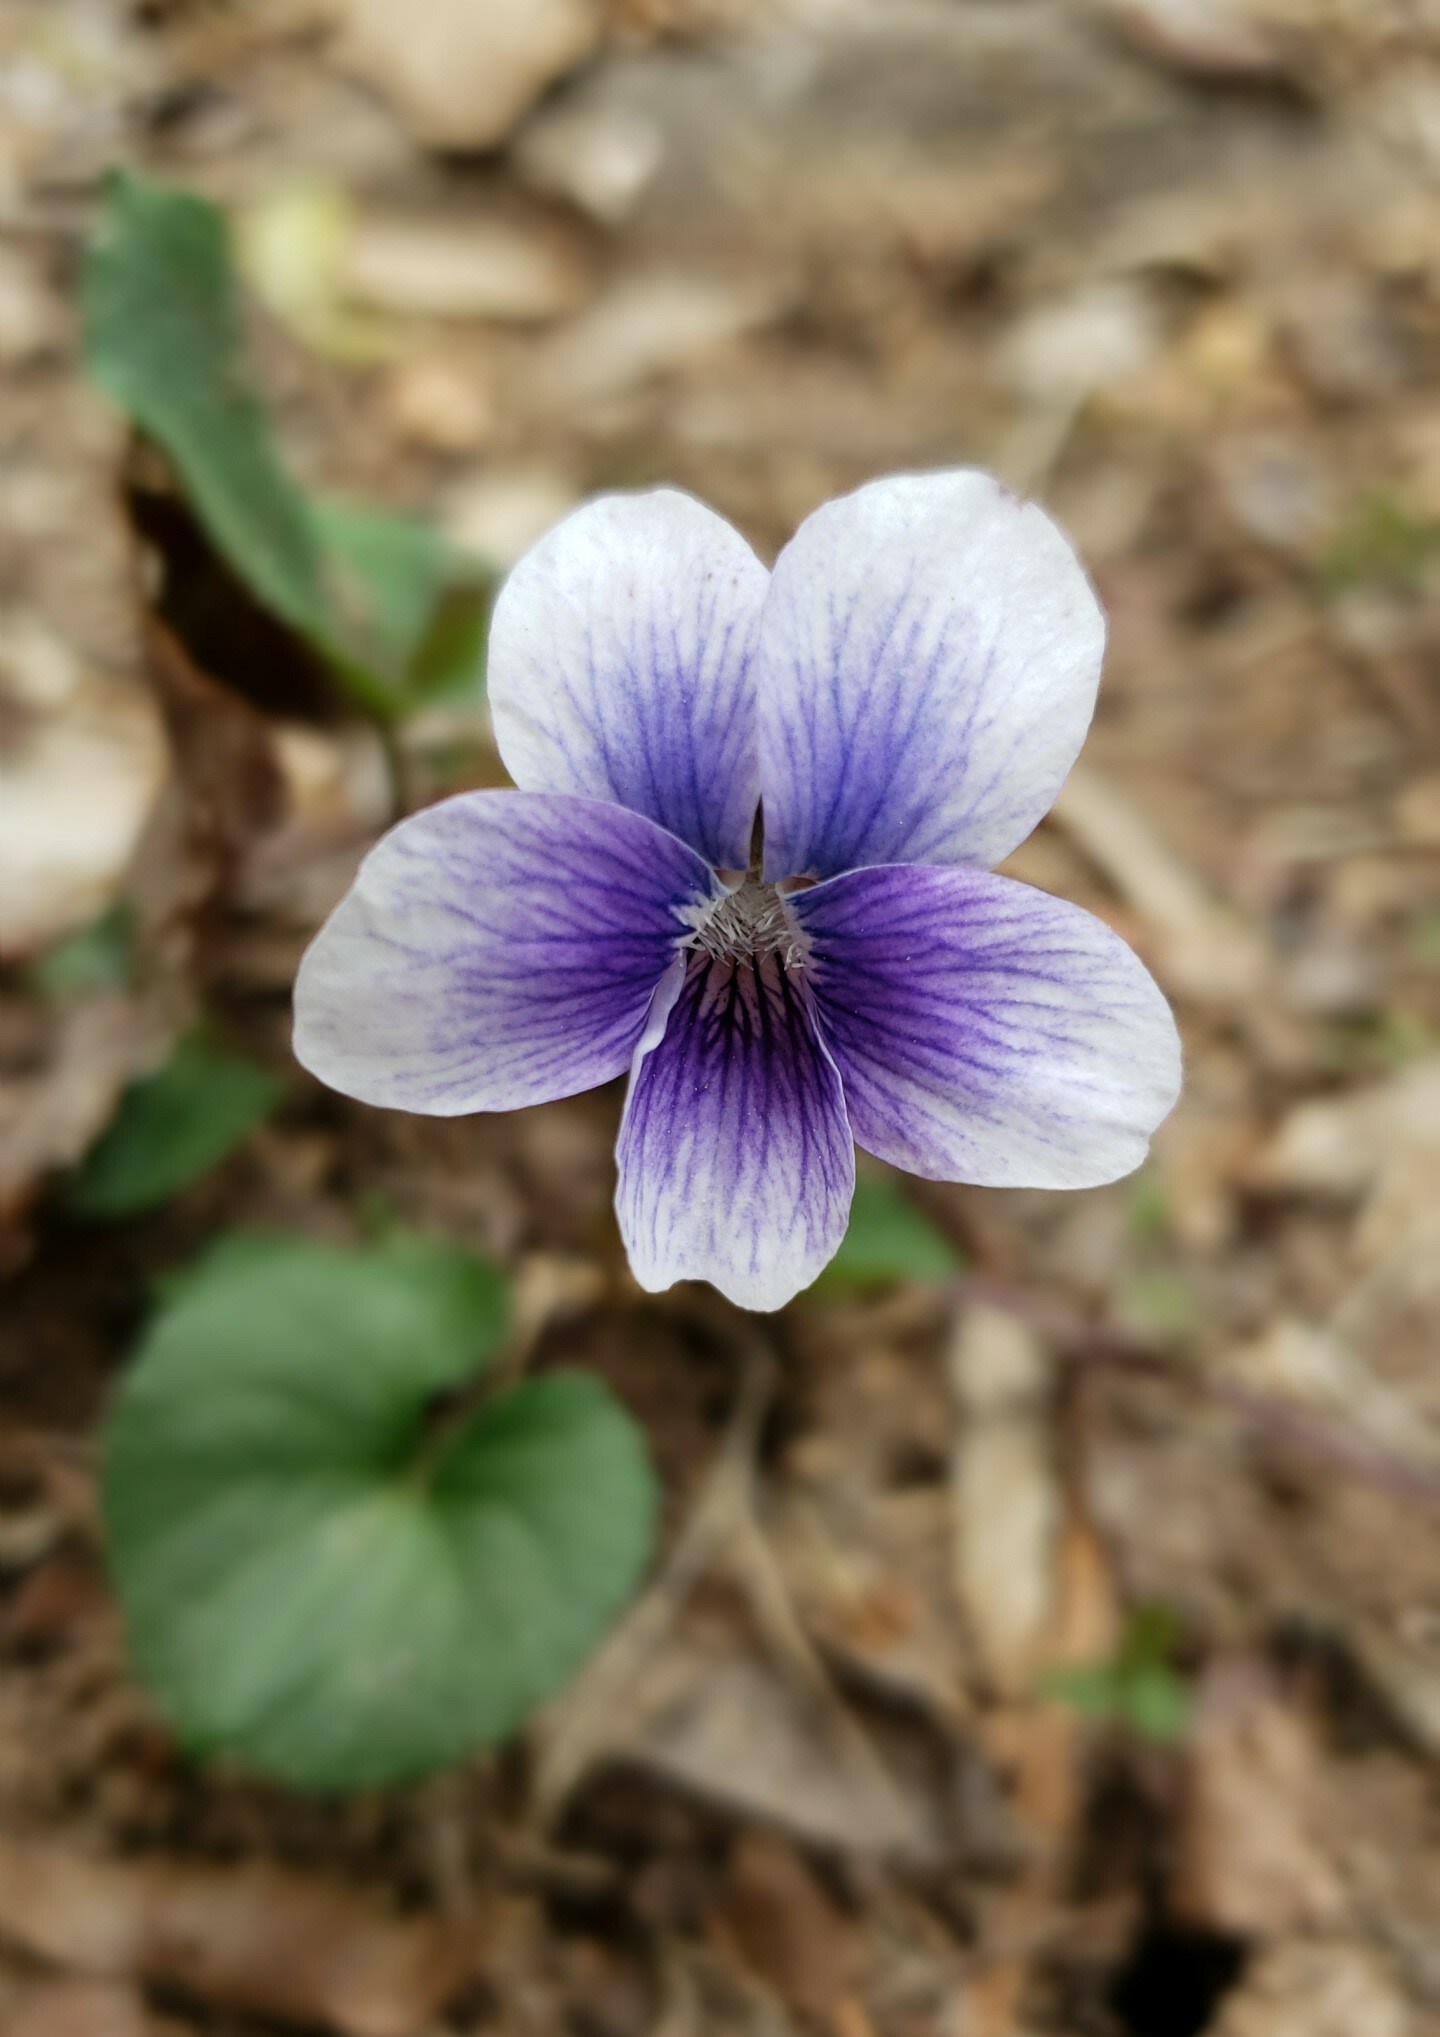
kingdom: Plantae
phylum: Tracheophyta
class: Magnoliopsida
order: Malpighiales
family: Violaceae
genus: Viola
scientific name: Viola sororia
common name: Dooryard violet
